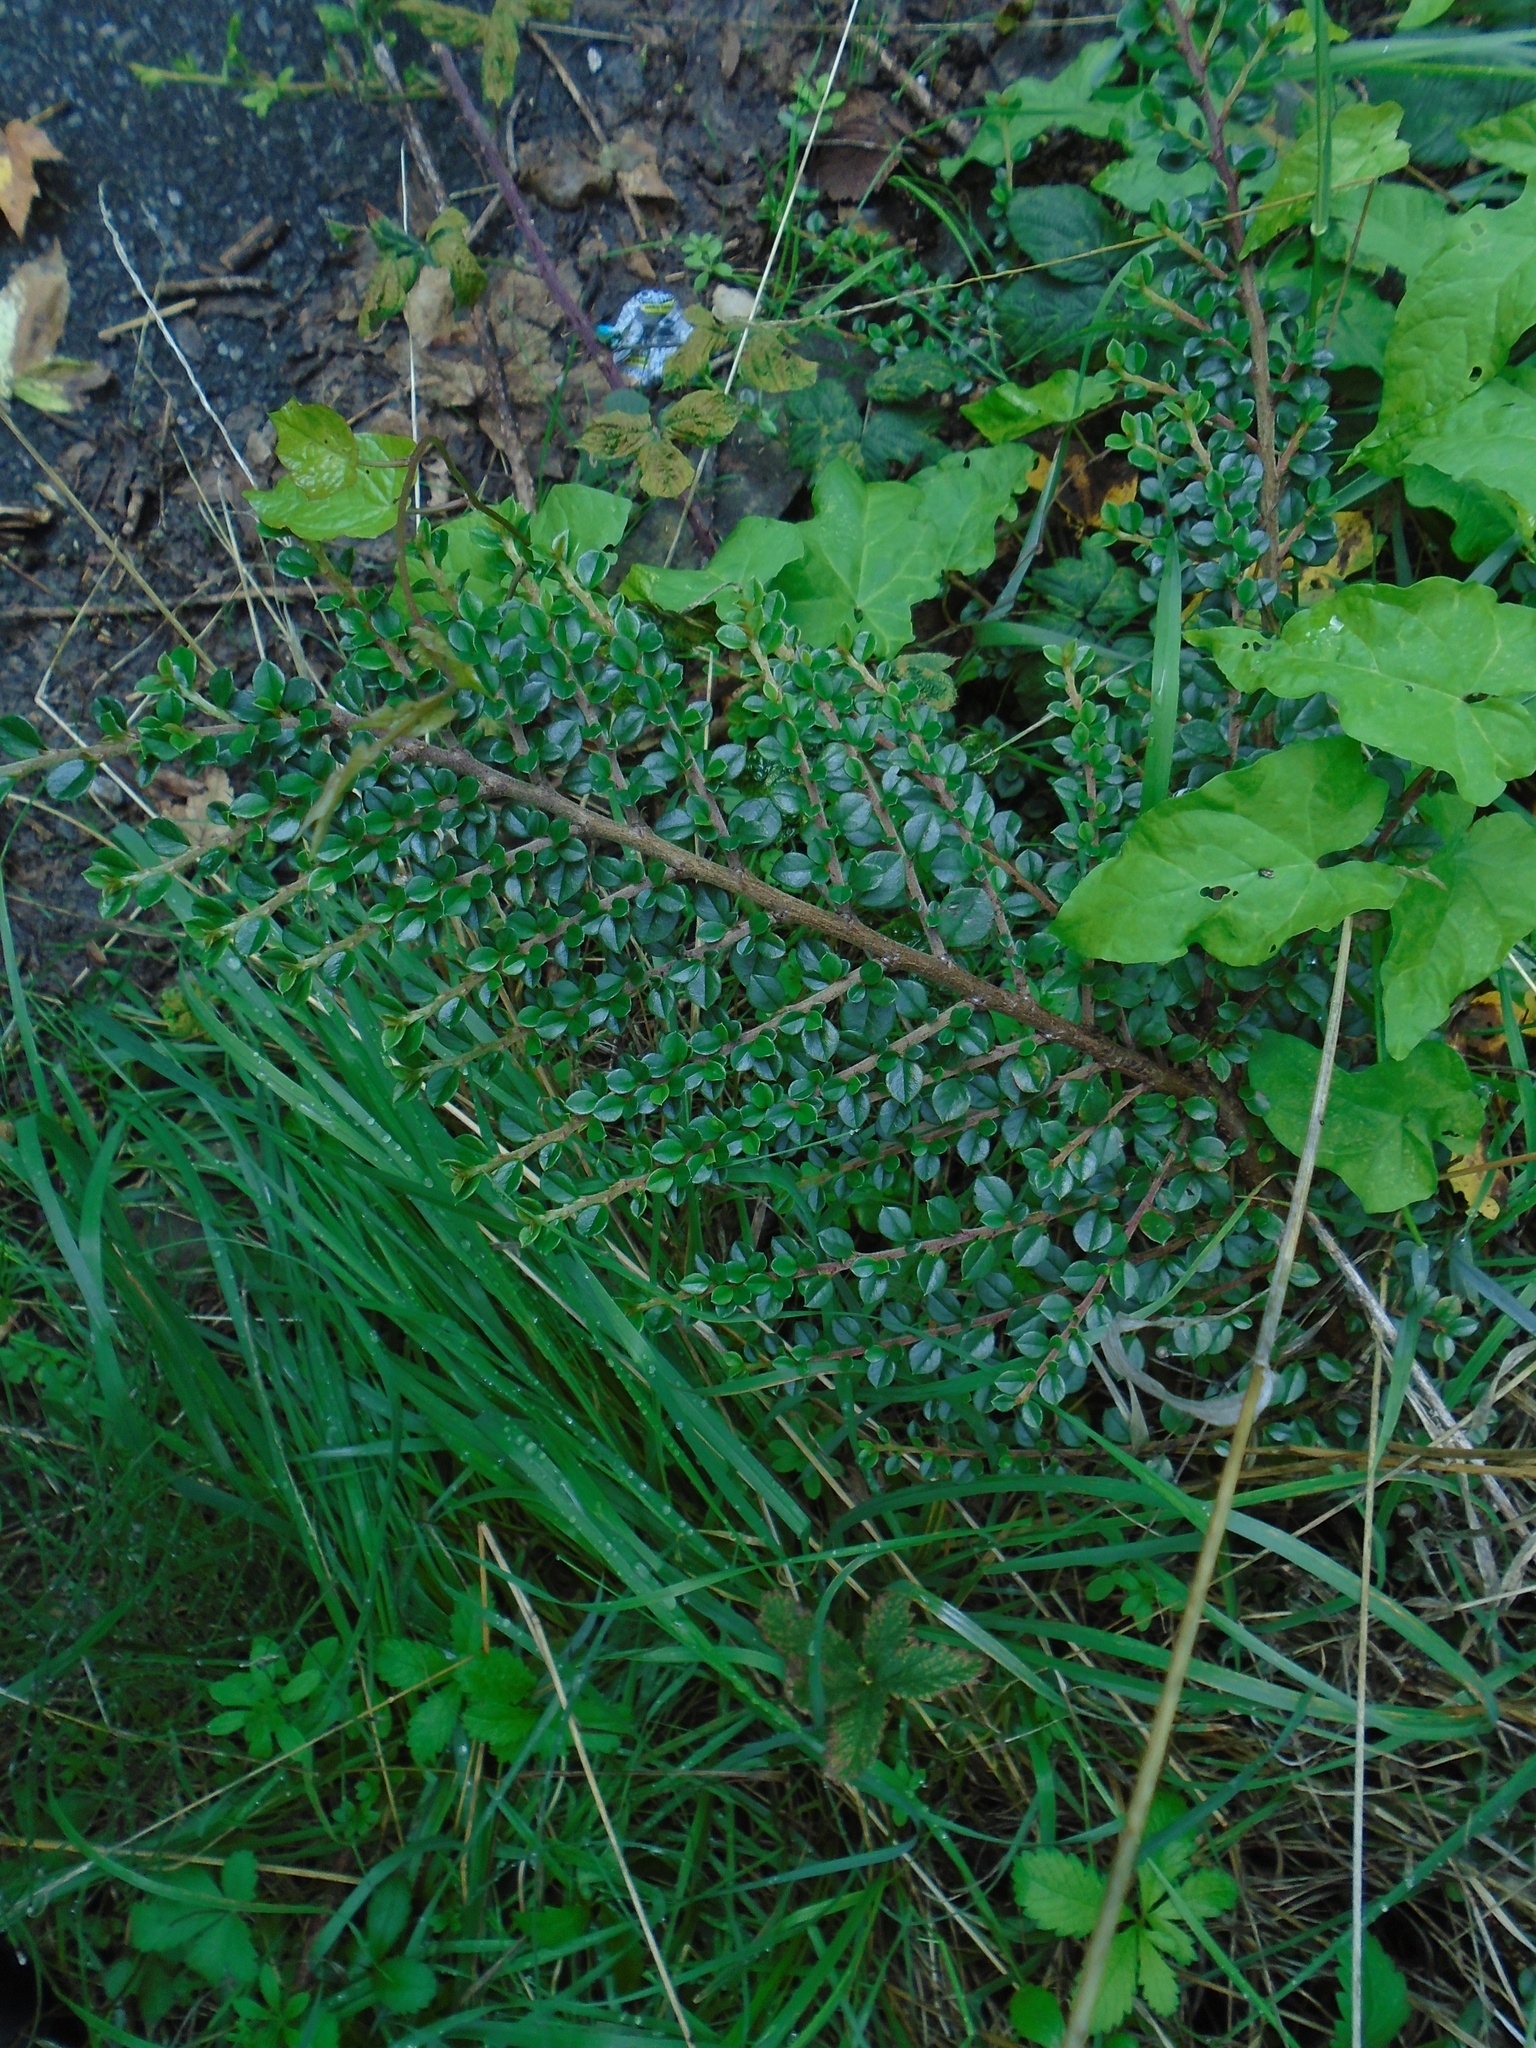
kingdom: Plantae
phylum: Tracheophyta
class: Magnoliopsida
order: Rosales
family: Rosaceae
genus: Cotoneaster
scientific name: Cotoneaster horizontalis
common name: Wall cotoneaster
